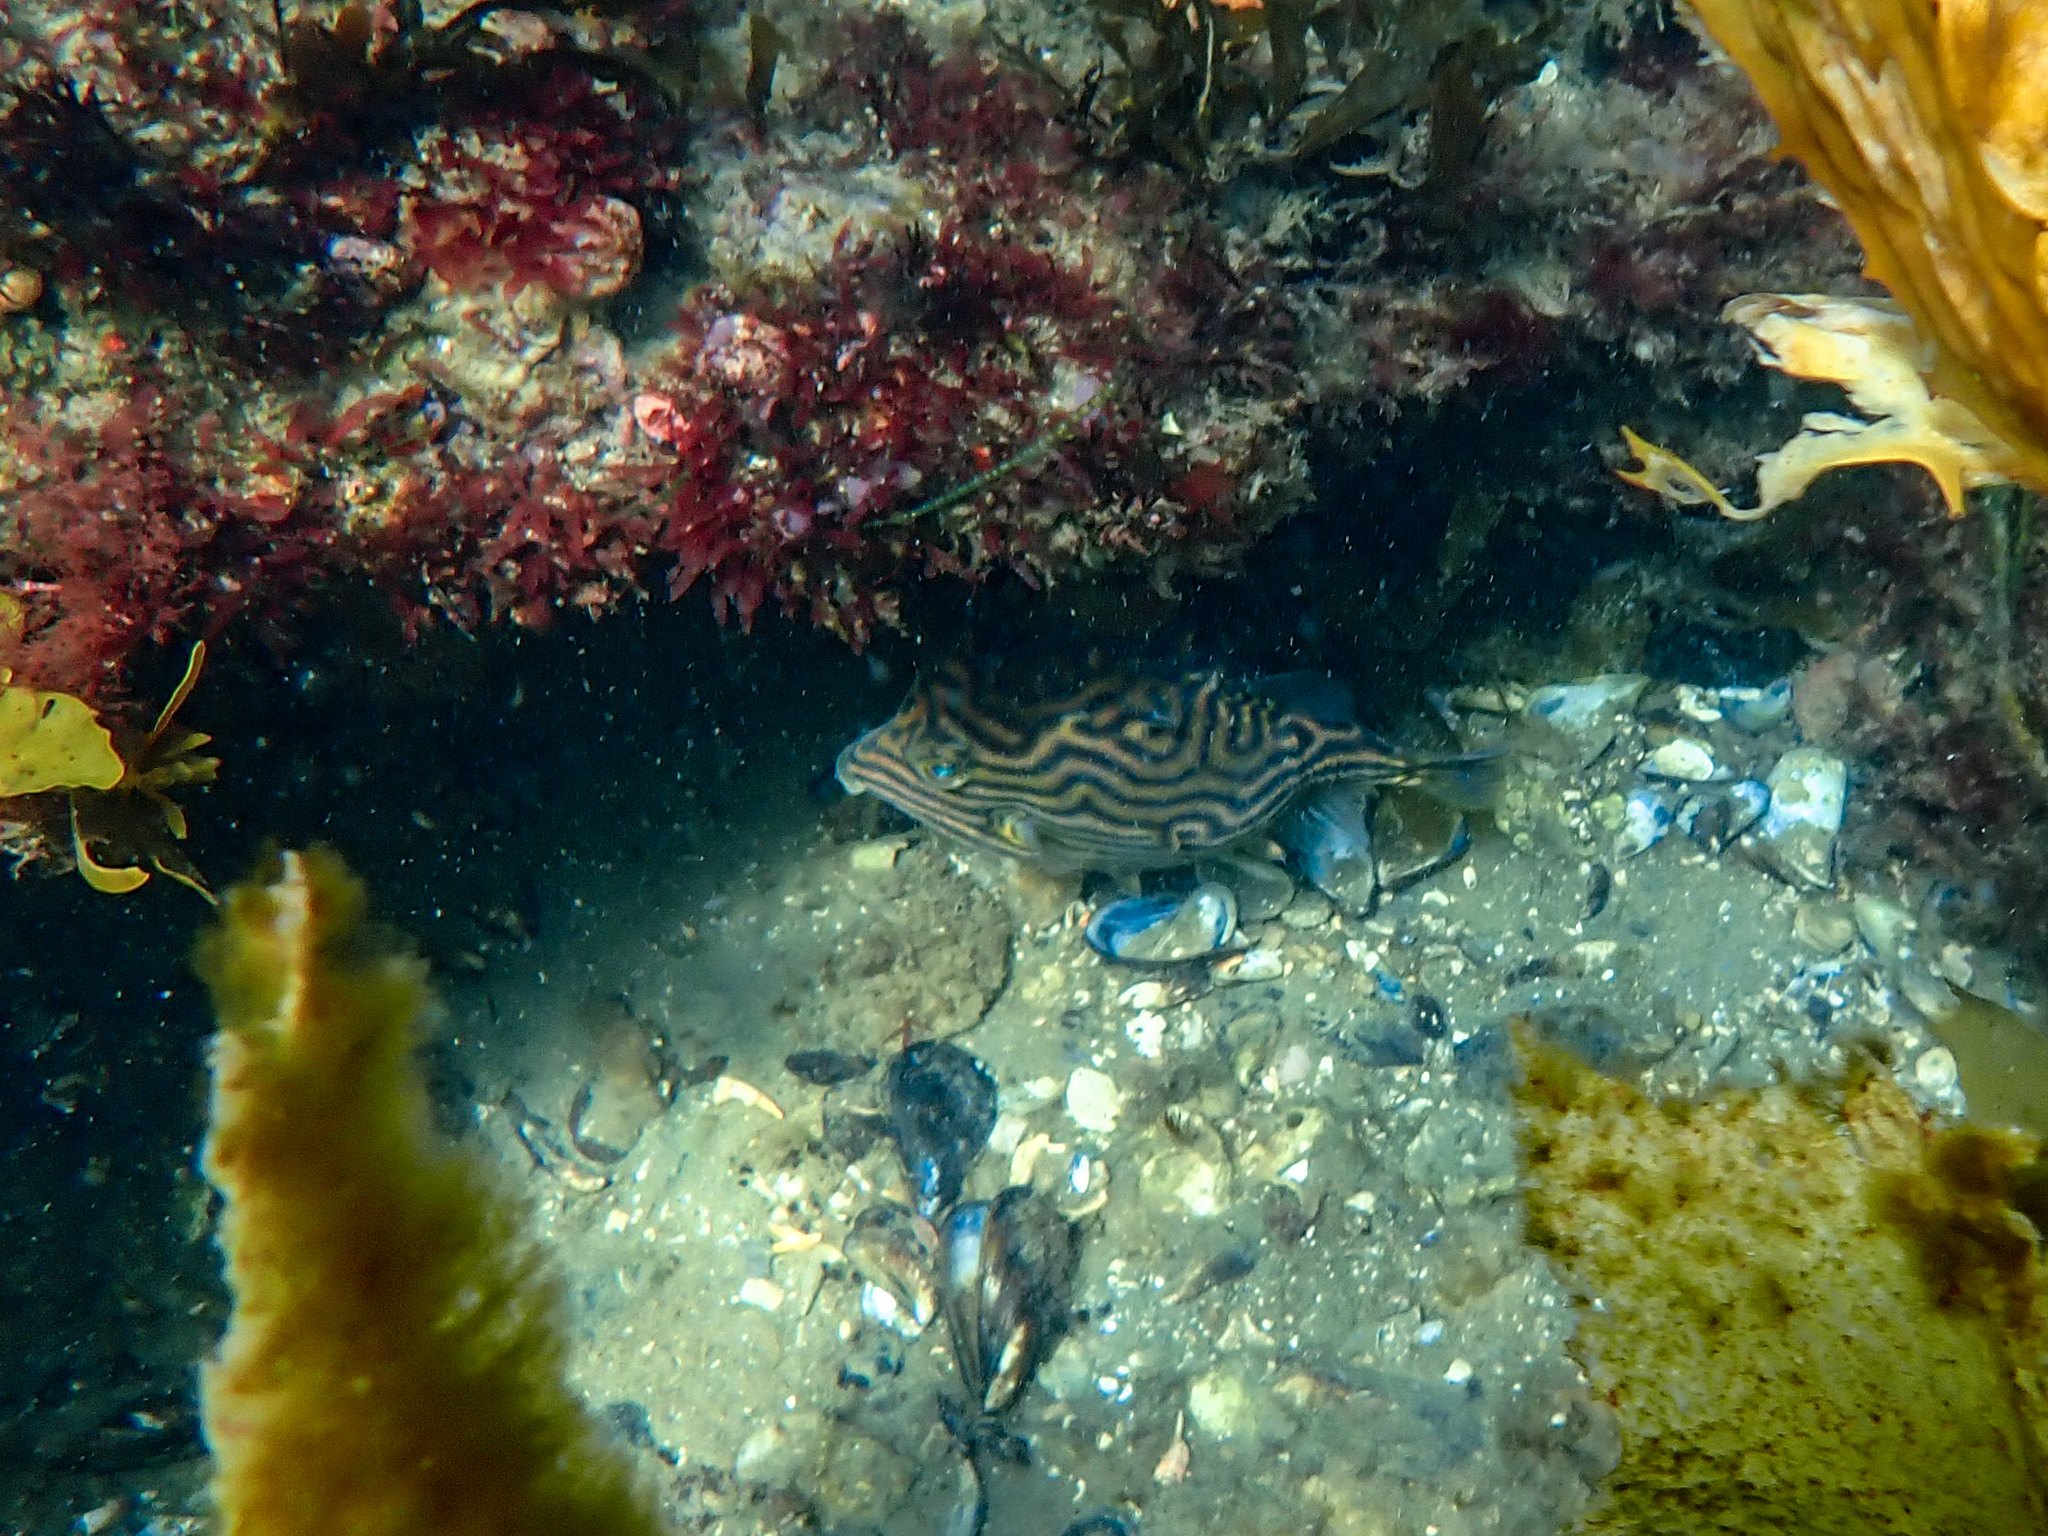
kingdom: Animalia
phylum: Chordata
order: Tetraodontiformes
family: Aracanidae
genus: Aracana
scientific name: Aracana aurita
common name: Shaw’s cowfish
